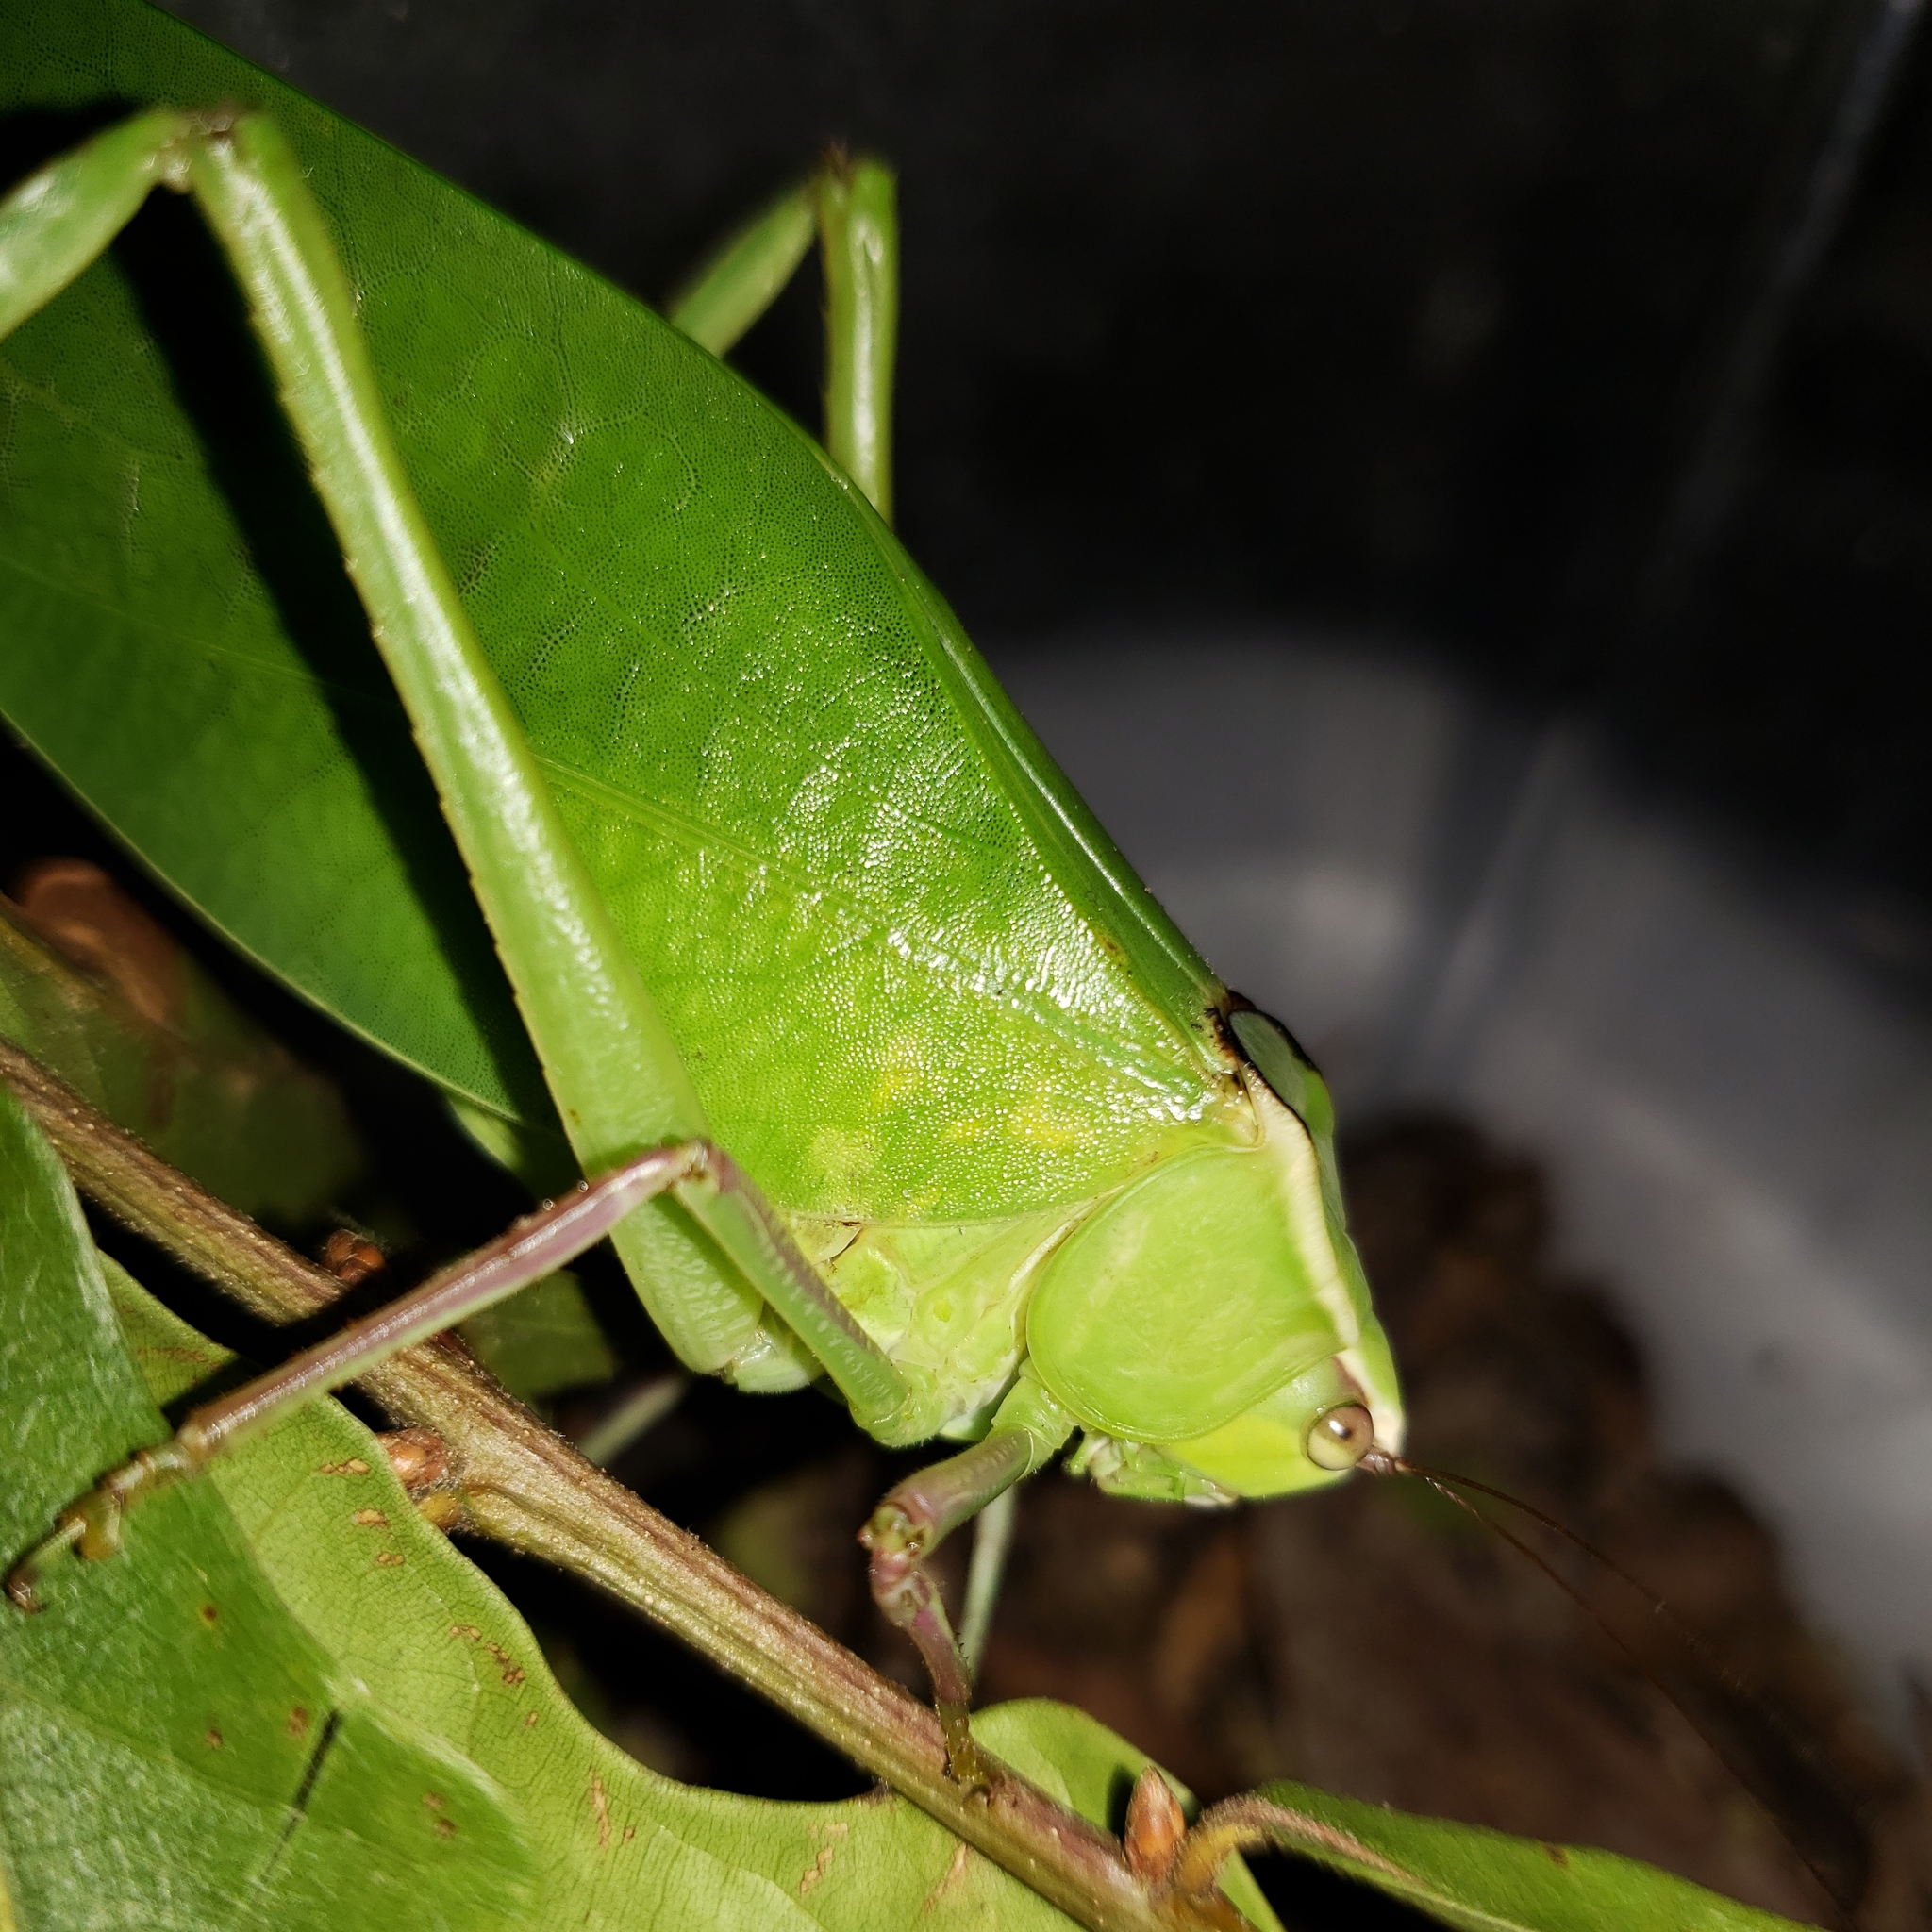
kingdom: Animalia
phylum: Arthropoda
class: Insecta
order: Orthoptera
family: Tettigoniidae
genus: Stilpnochlora
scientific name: Stilpnochlora couloniana
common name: Giant katydid
